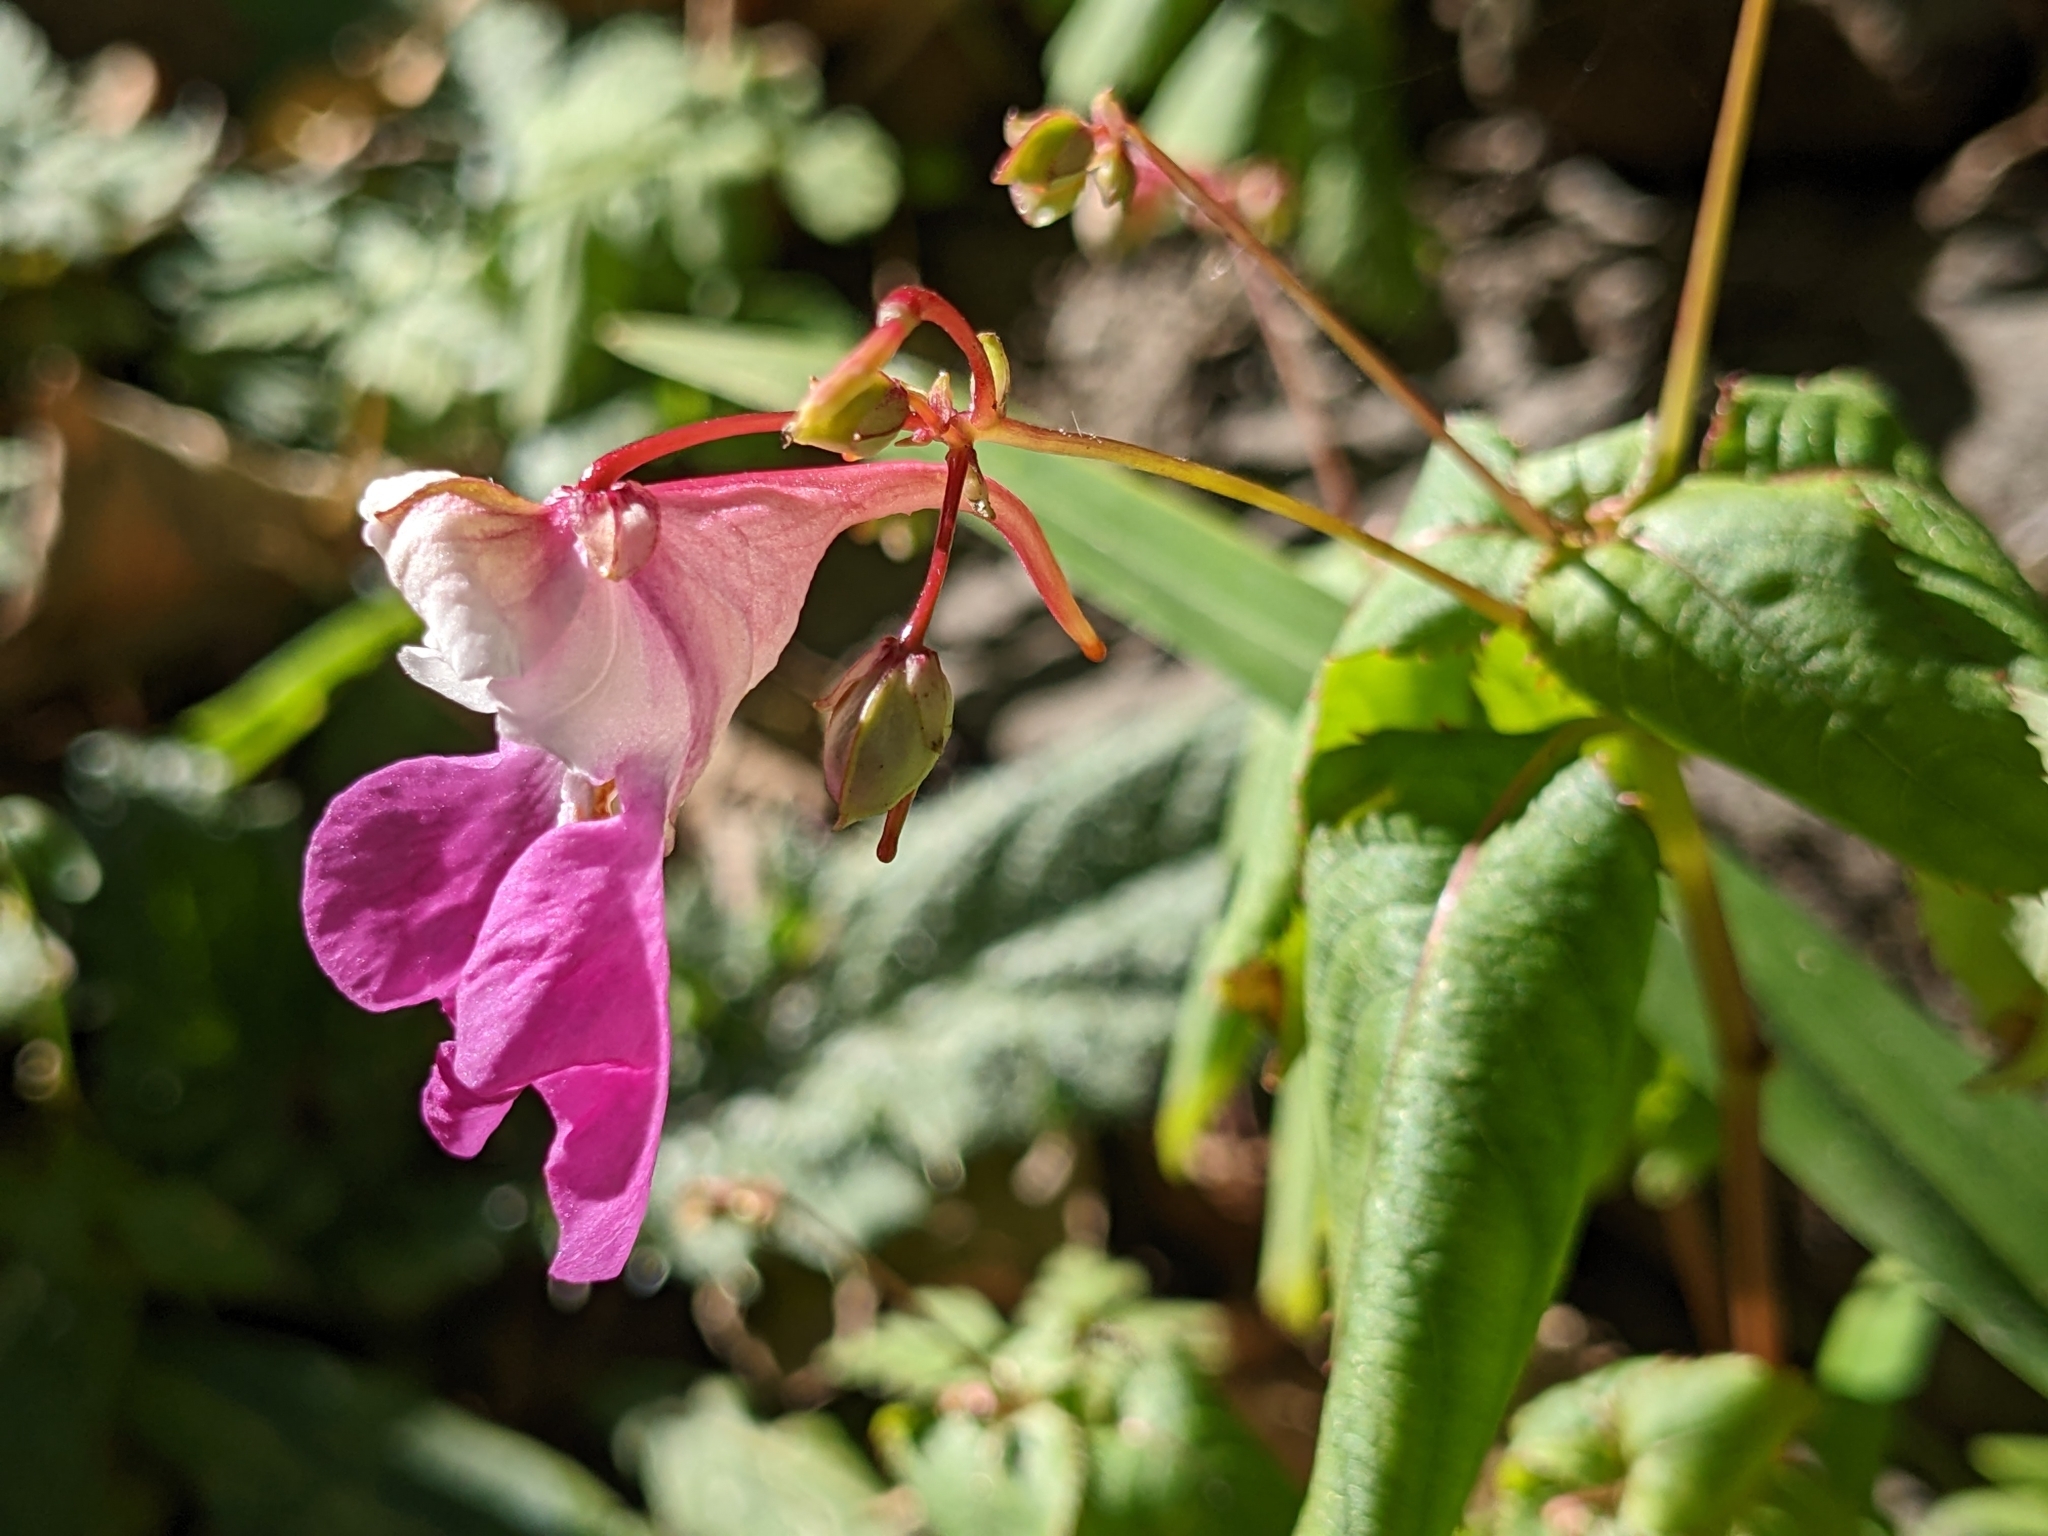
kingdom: Plantae
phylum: Tracheophyta
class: Magnoliopsida
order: Ericales
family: Balsaminaceae
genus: Impatiens
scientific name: Impatiens balfourii
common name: Balfour's touch-me-not
